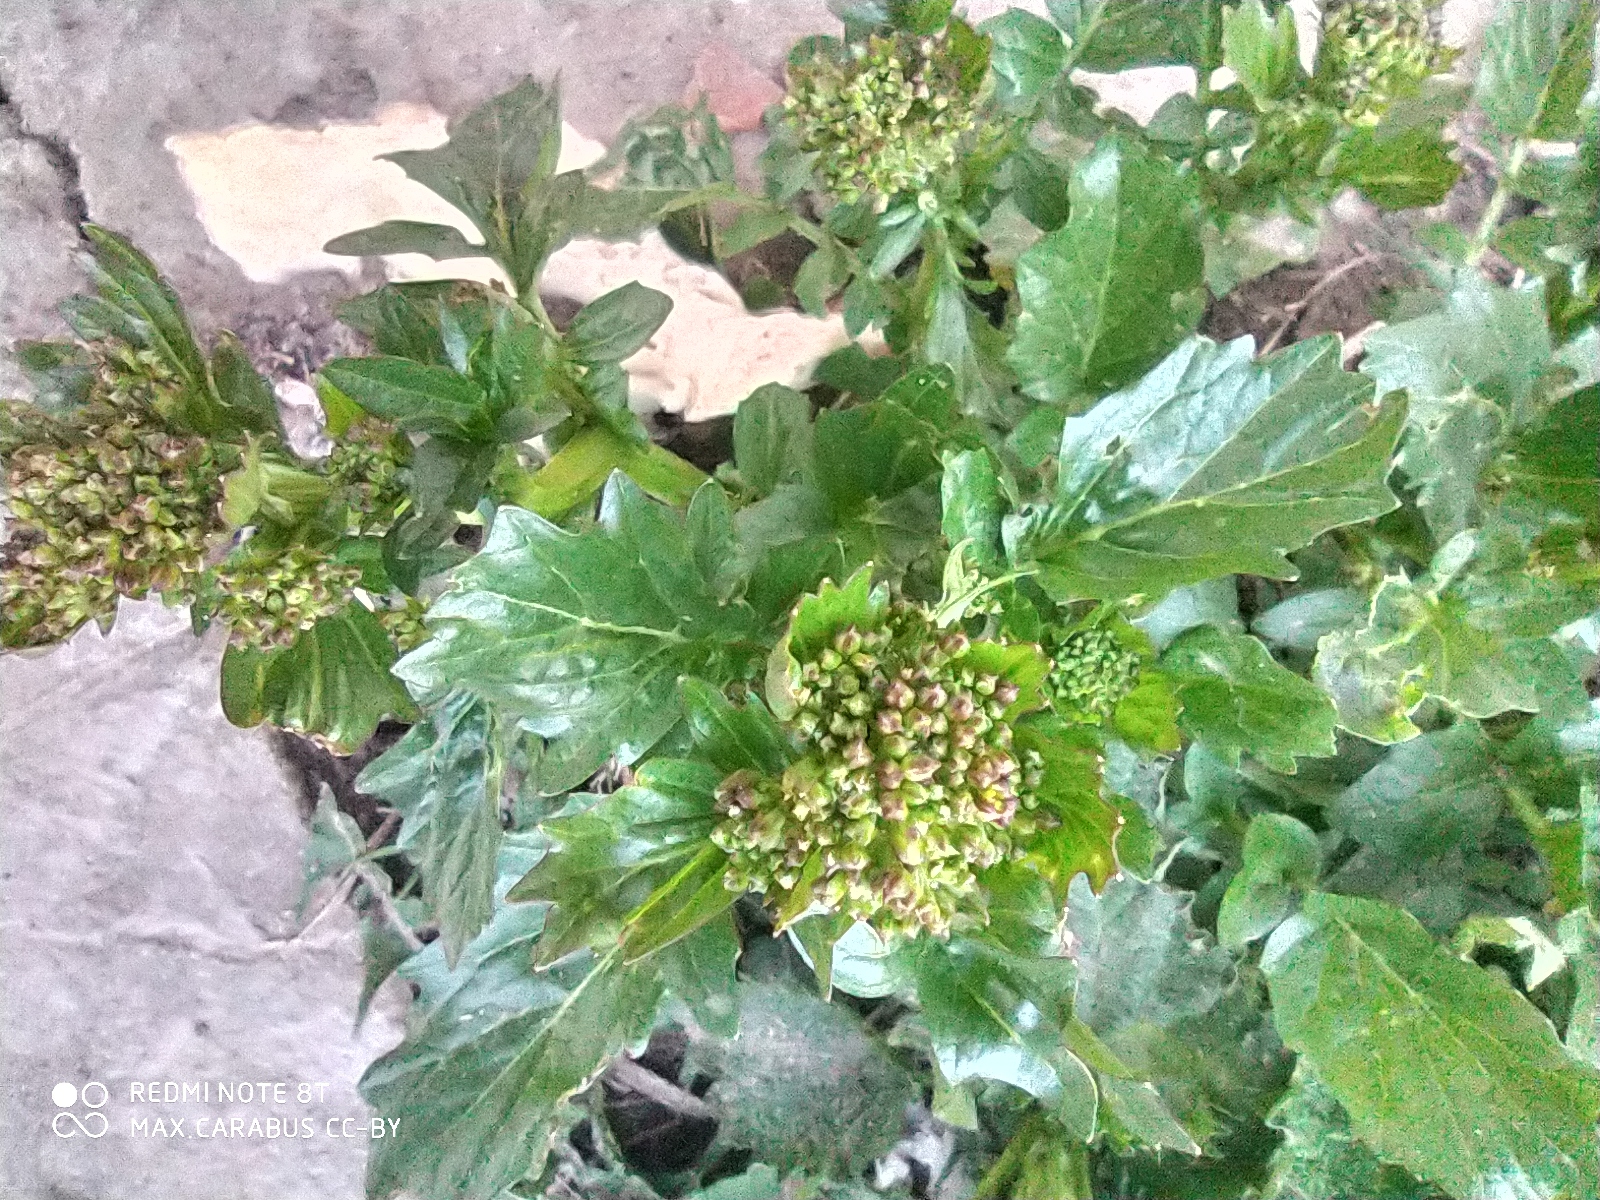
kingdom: Plantae
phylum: Tracheophyta
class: Magnoliopsida
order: Brassicales
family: Brassicaceae
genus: Barbarea
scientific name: Barbarea vulgaris
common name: Cressy-greens
